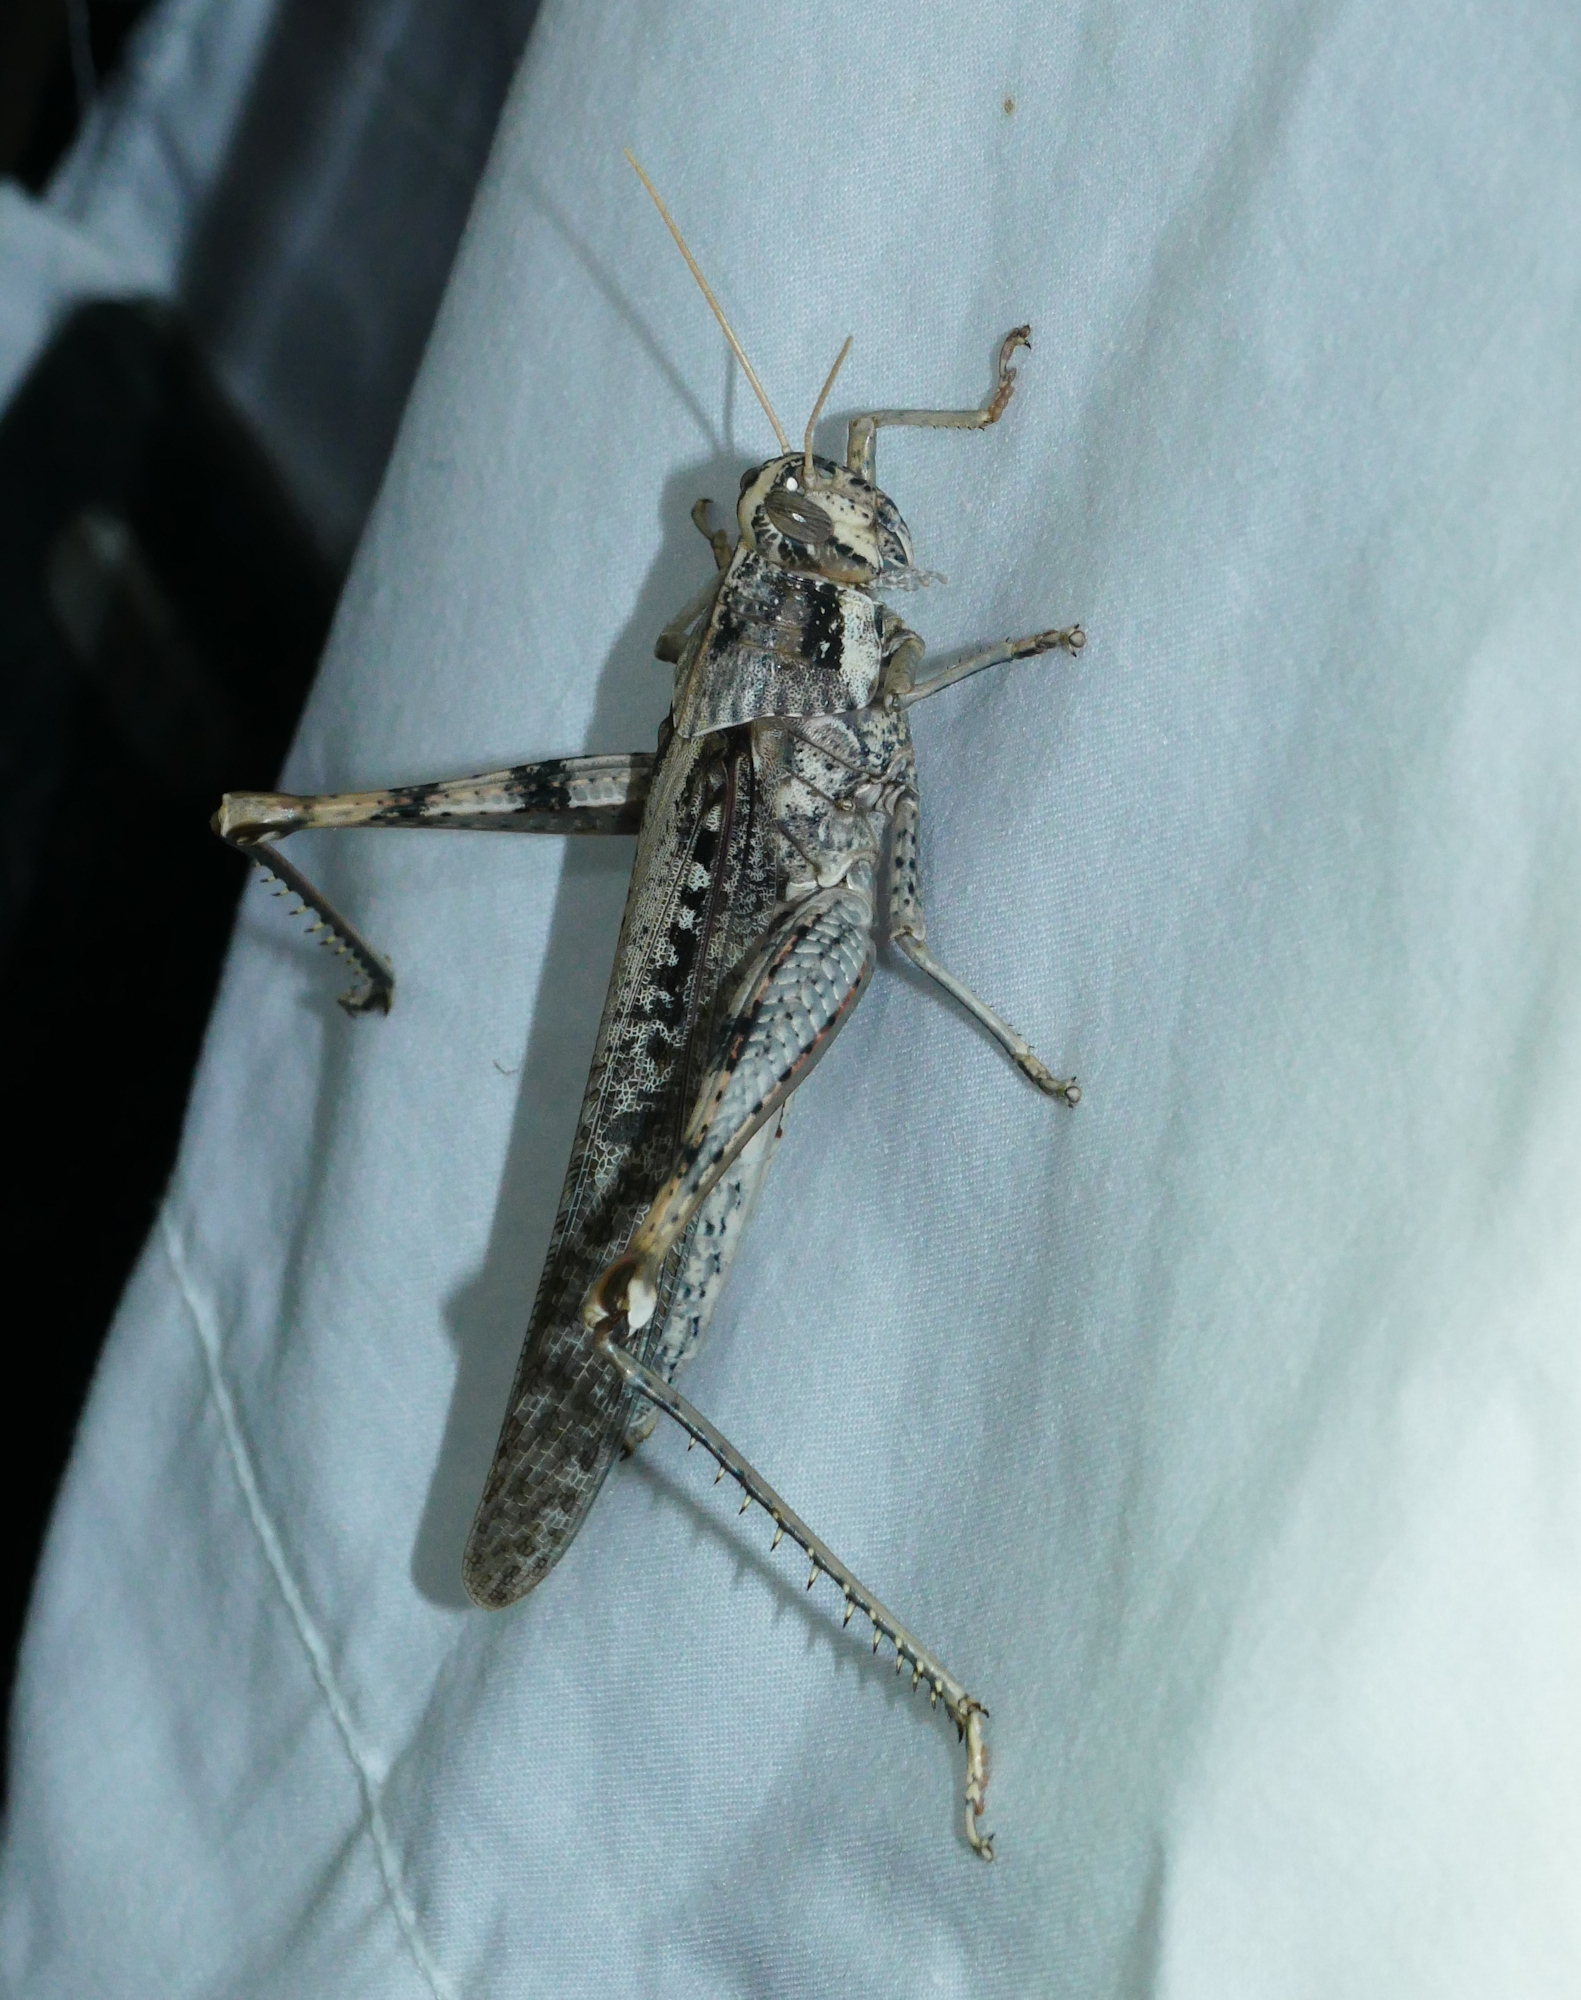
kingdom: Animalia
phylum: Arthropoda
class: Insecta
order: Orthoptera
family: Acrididae
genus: Schistocerca
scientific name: Schistocerca nitens
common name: Vagrant grasshopper
